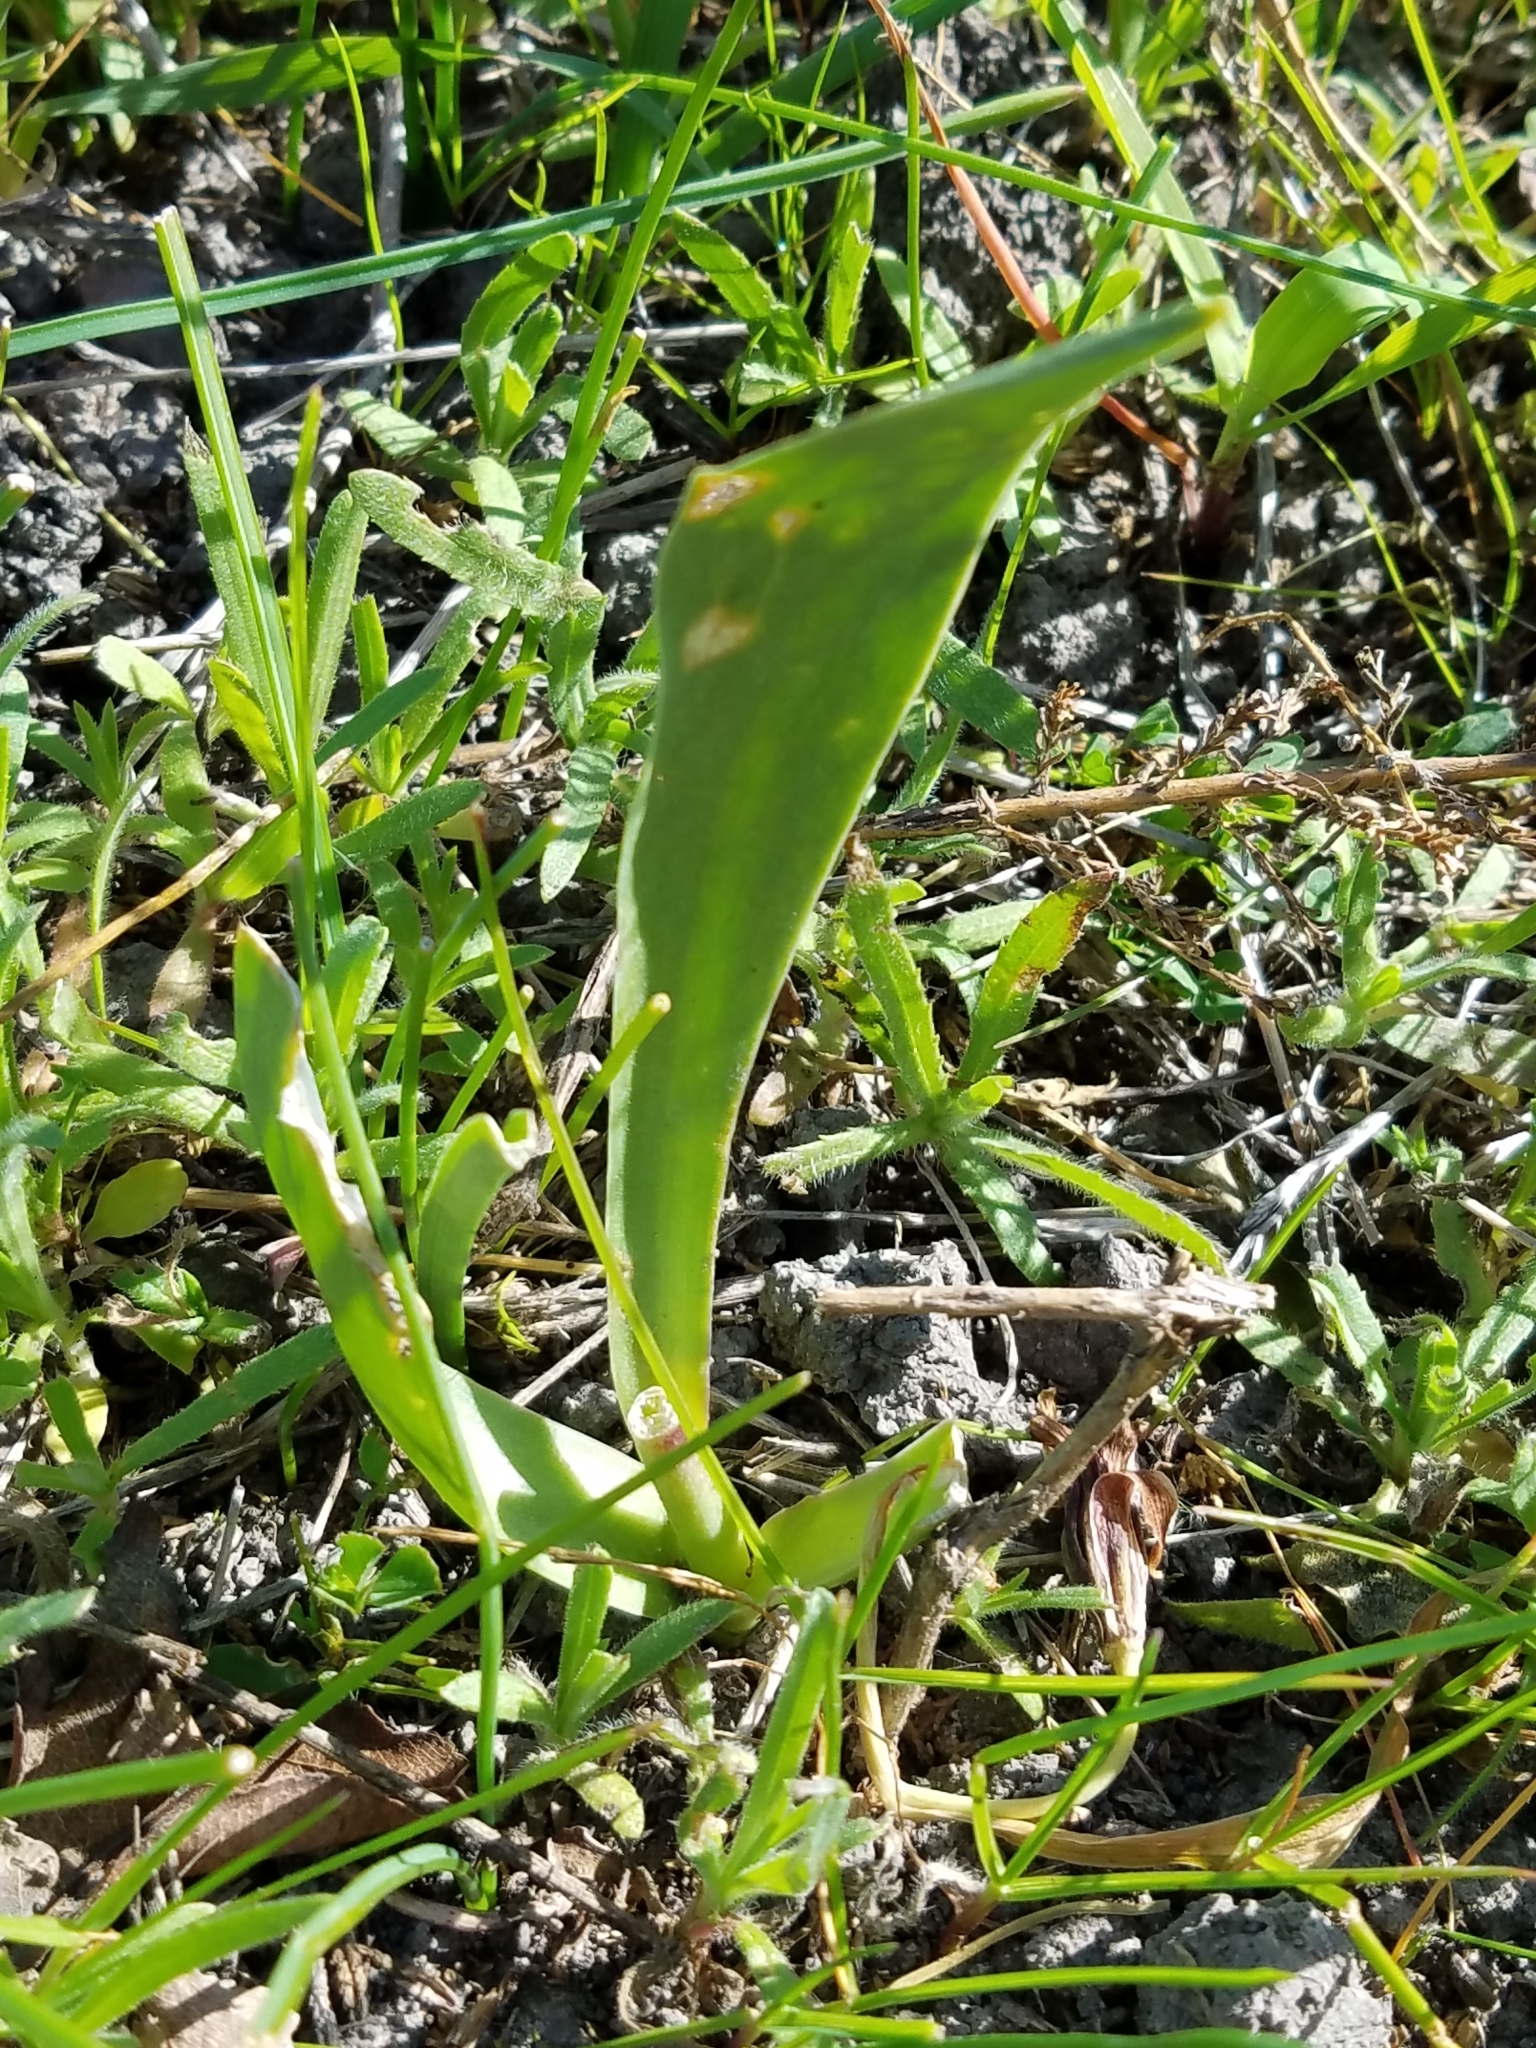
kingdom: Plantae
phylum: Tracheophyta
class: Liliopsida
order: Liliales
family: Liliaceae
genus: Fritillaria
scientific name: Fritillaria agrestis
